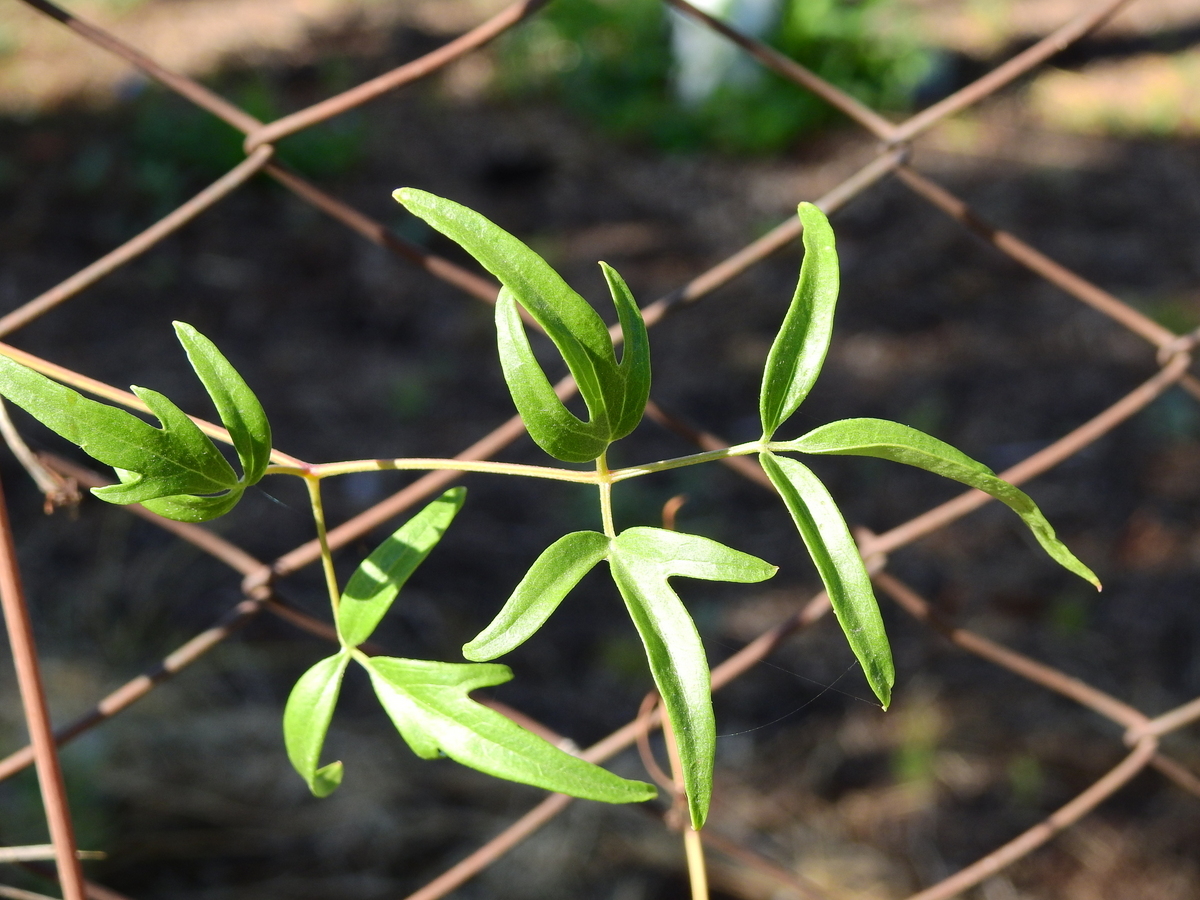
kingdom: Plantae
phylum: Tracheophyta
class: Magnoliopsida
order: Ranunculales
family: Ranunculaceae
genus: Clematis
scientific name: Clematis montevidensis
